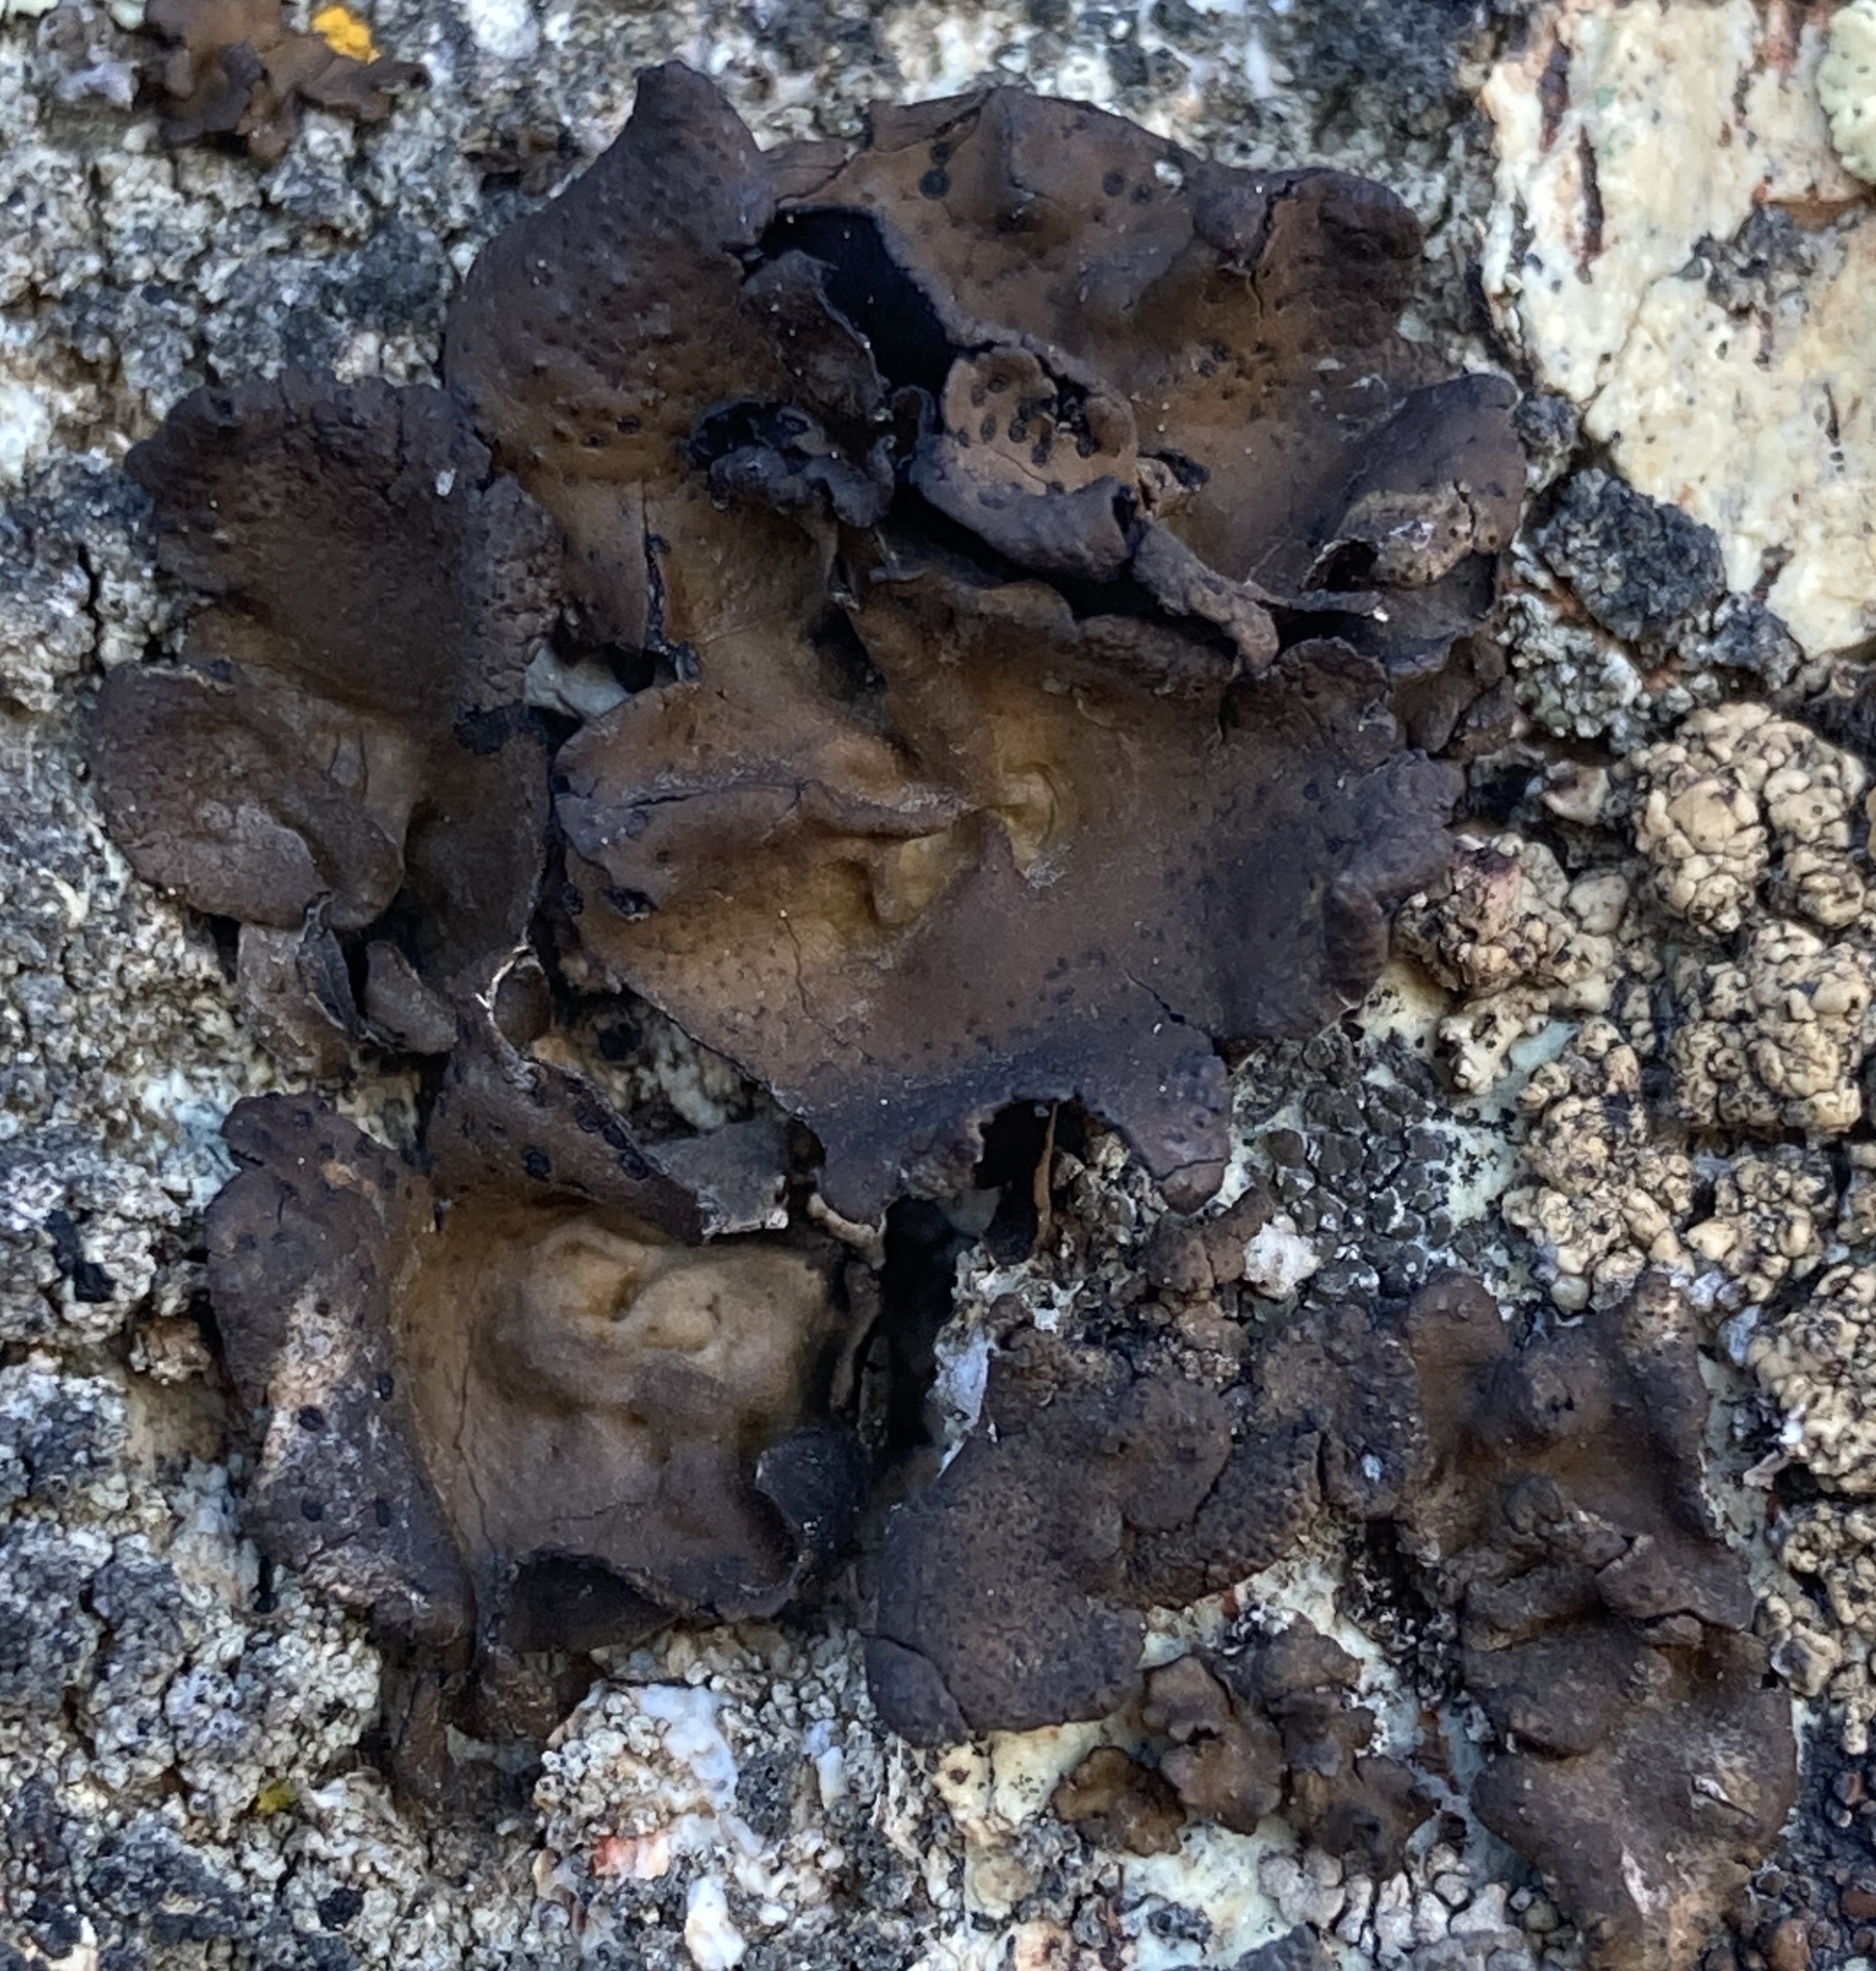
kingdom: Fungi
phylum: Ascomycota
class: Lecanoromycetes
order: Umbilicariales
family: Umbilicariaceae
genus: Umbilicaria
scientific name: Umbilicaria phaea
